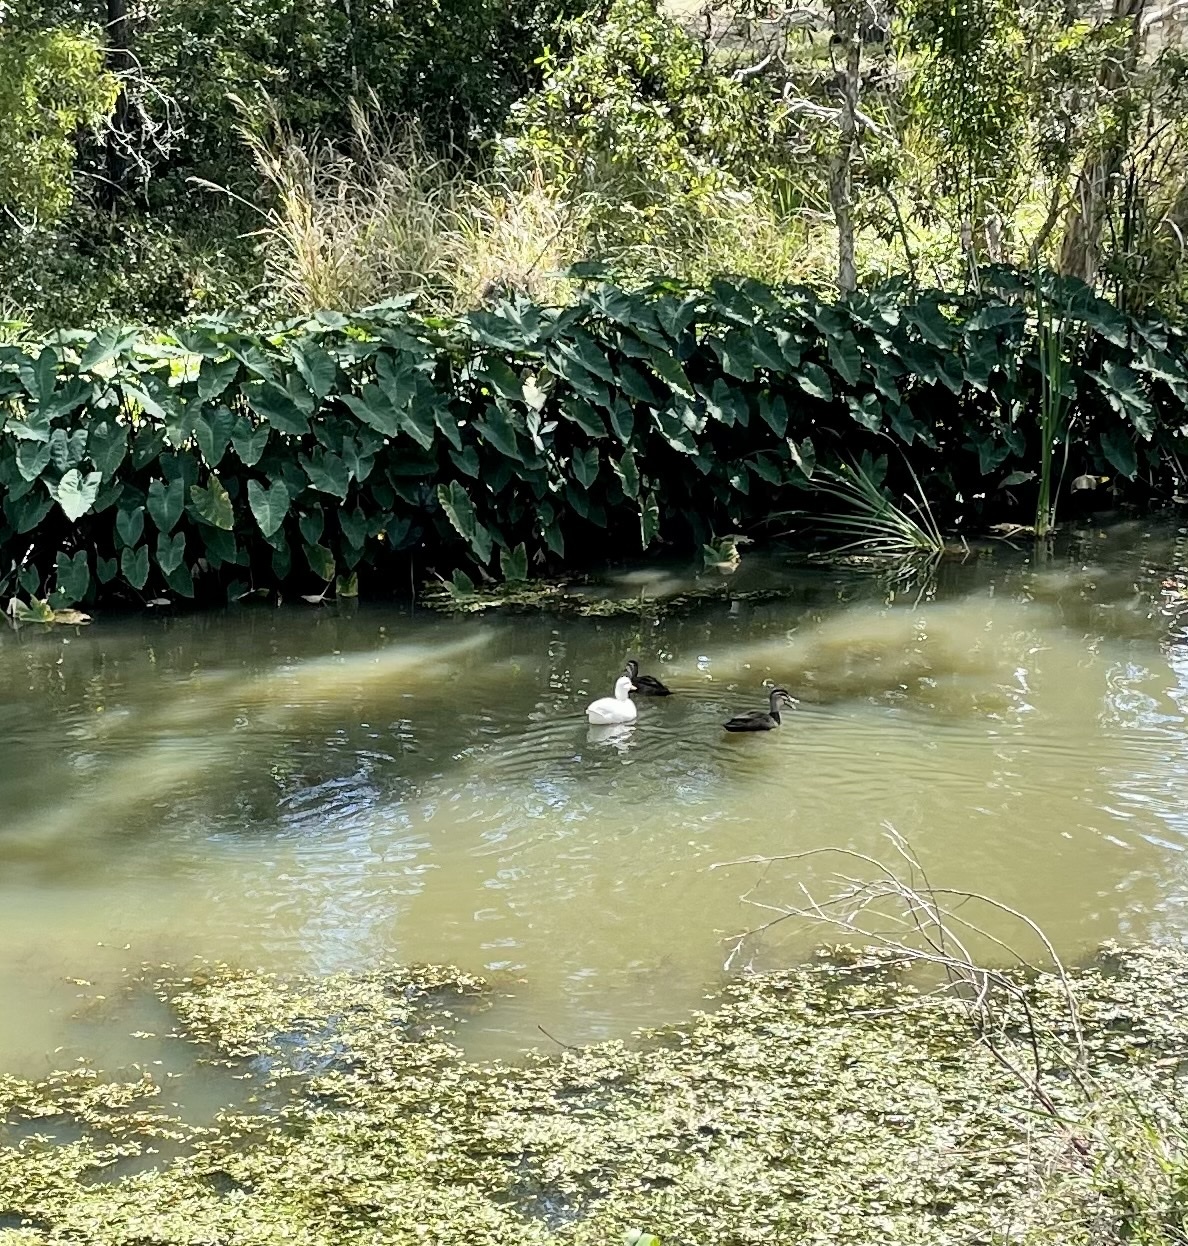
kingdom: Animalia
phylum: Chordata
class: Aves
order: Anseriformes
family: Anatidae
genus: Anas
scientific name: Anas platyrhynchos
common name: Mallard
